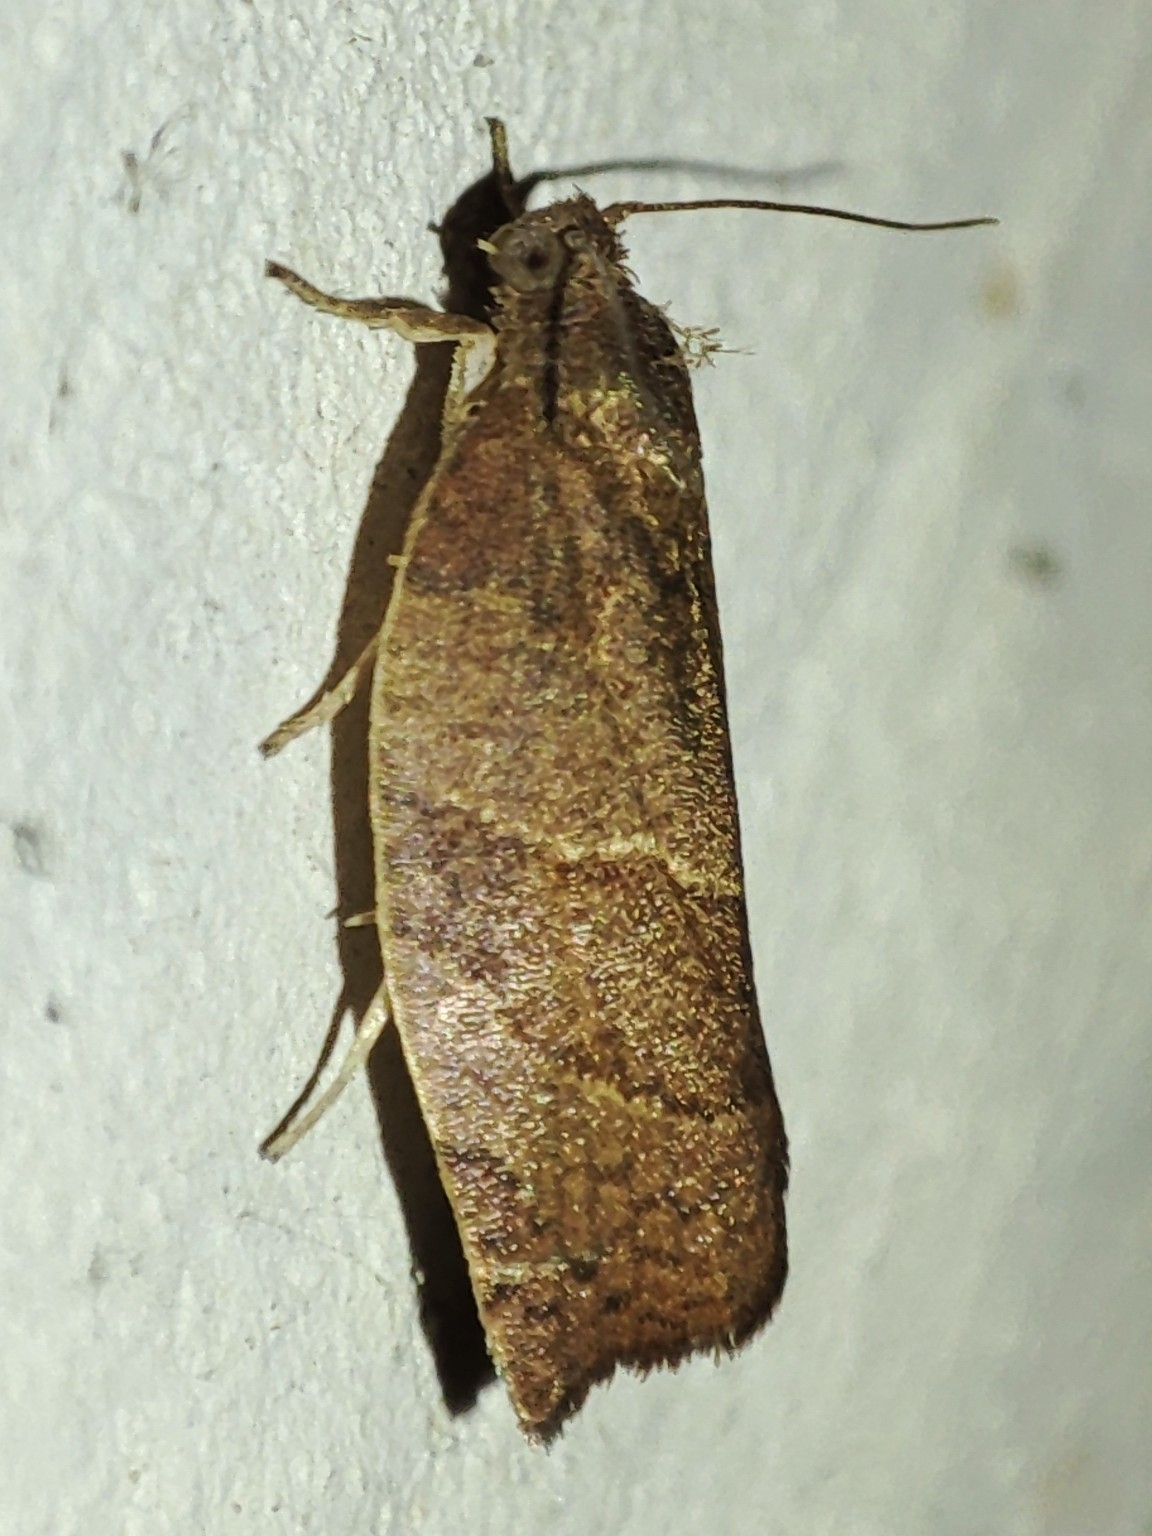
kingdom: Animalia
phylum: Arthropoda
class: Insecta
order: Lepidoptera
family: Tortricidae
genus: Pandemis
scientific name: Pandemis heparana
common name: Dark fruit-tree tortrix
